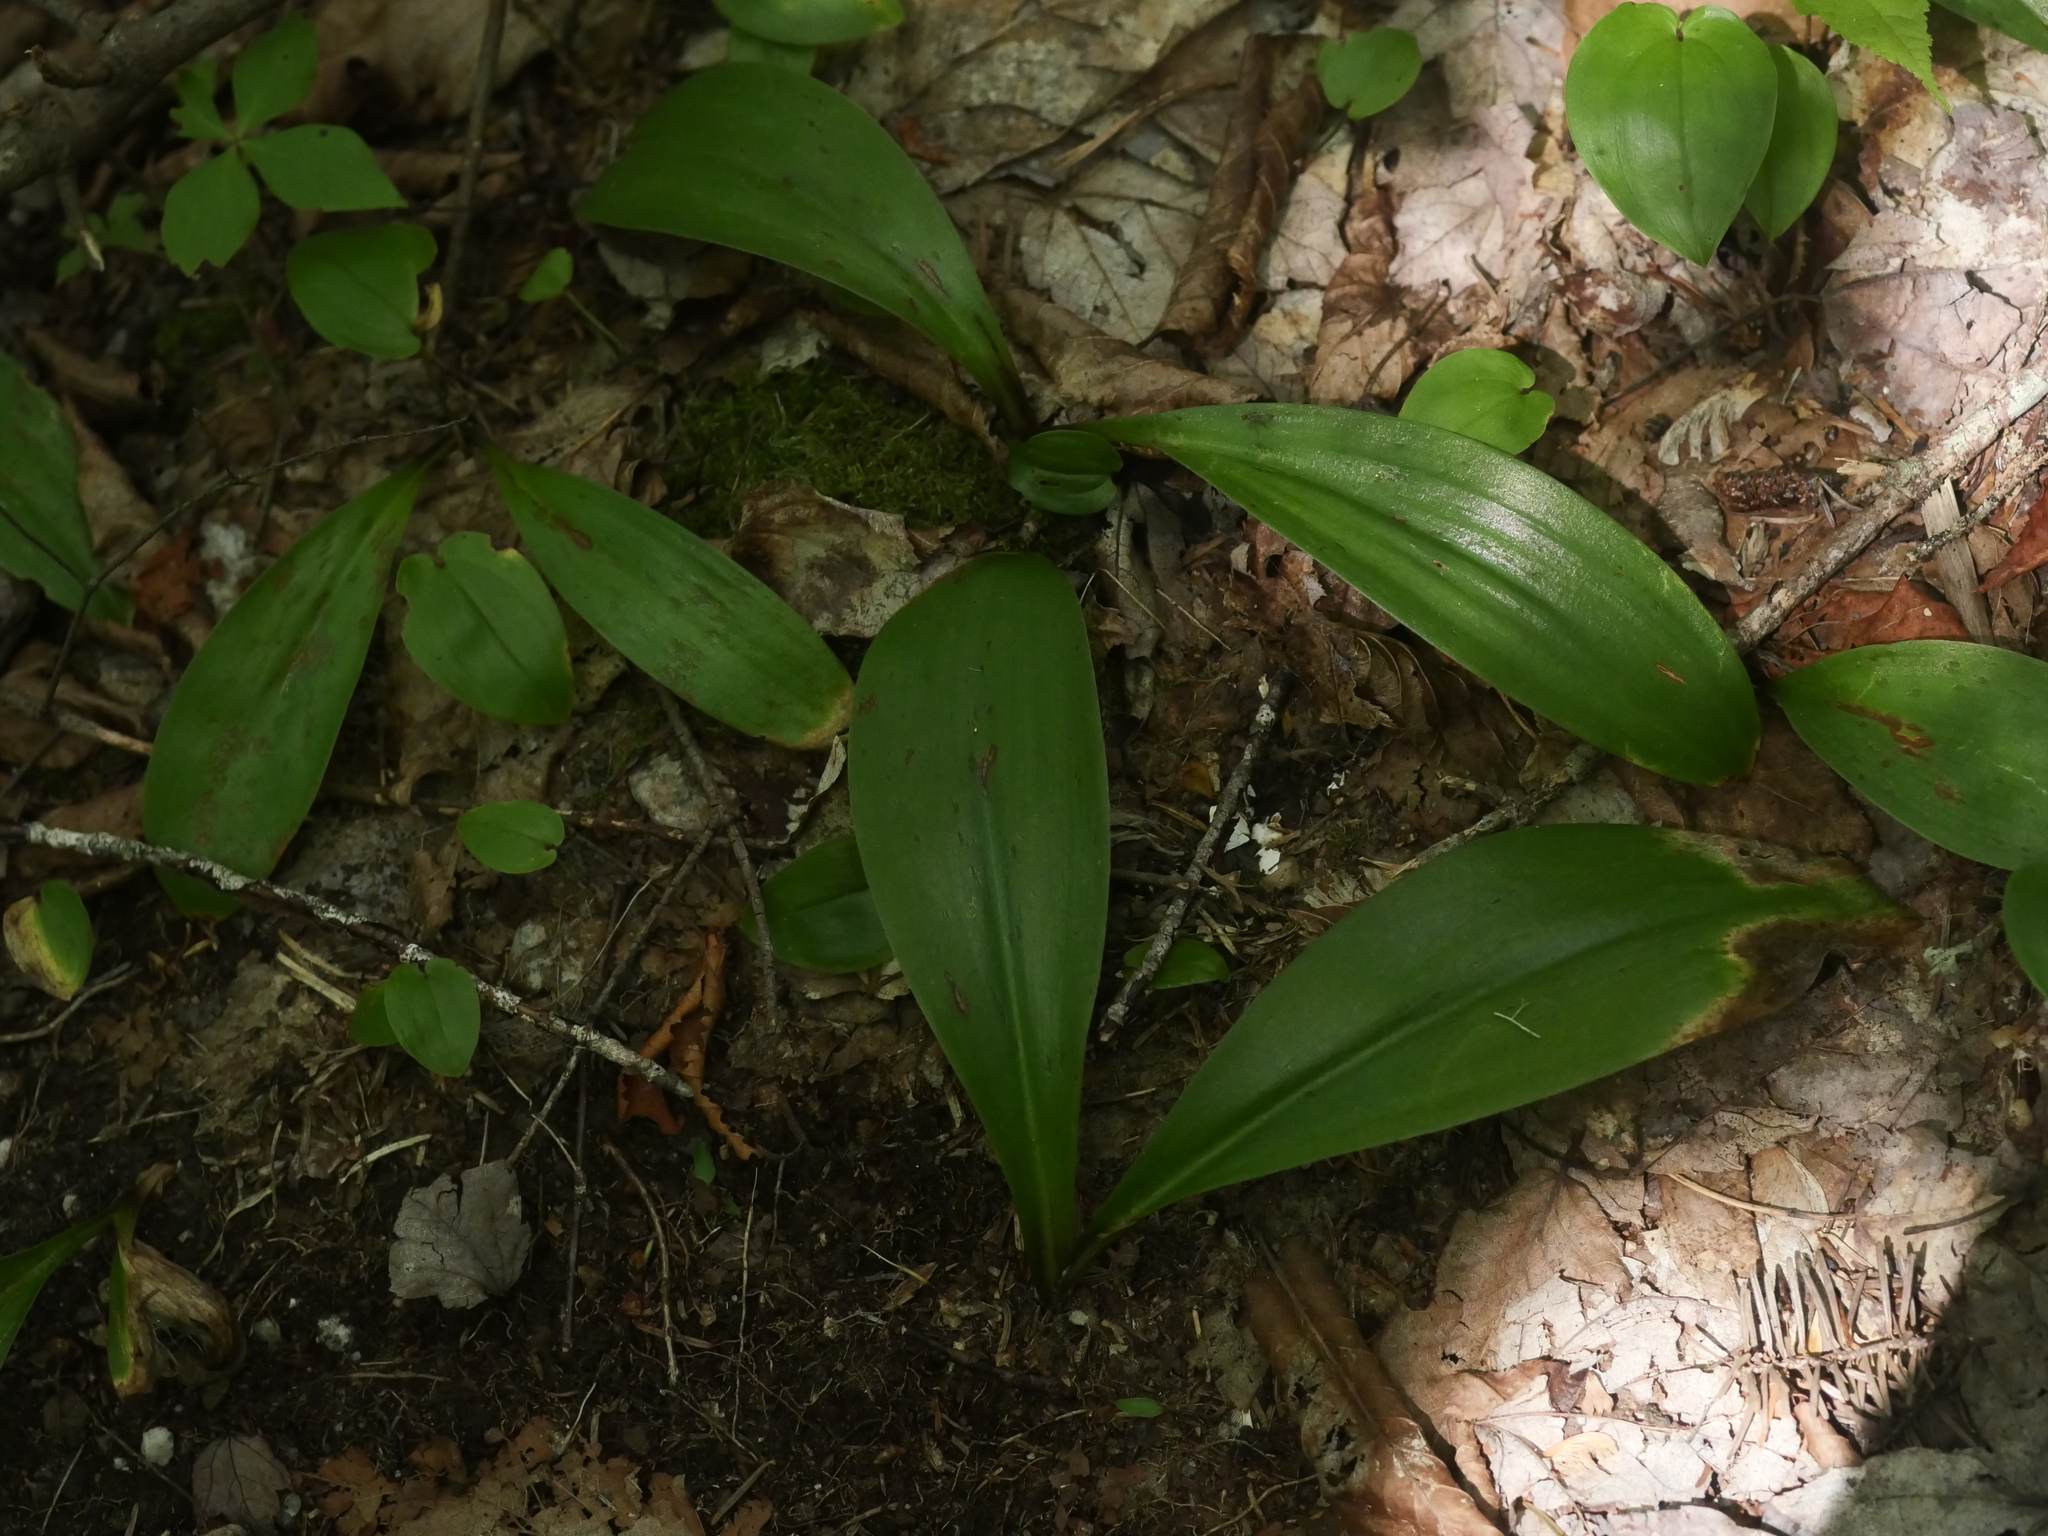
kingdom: Plantae
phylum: Tracheophyta
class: Liliopsida
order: Liliales
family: Liliaceae
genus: Clintonia
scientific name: Clintonia borealis
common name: Yellow clintonia
